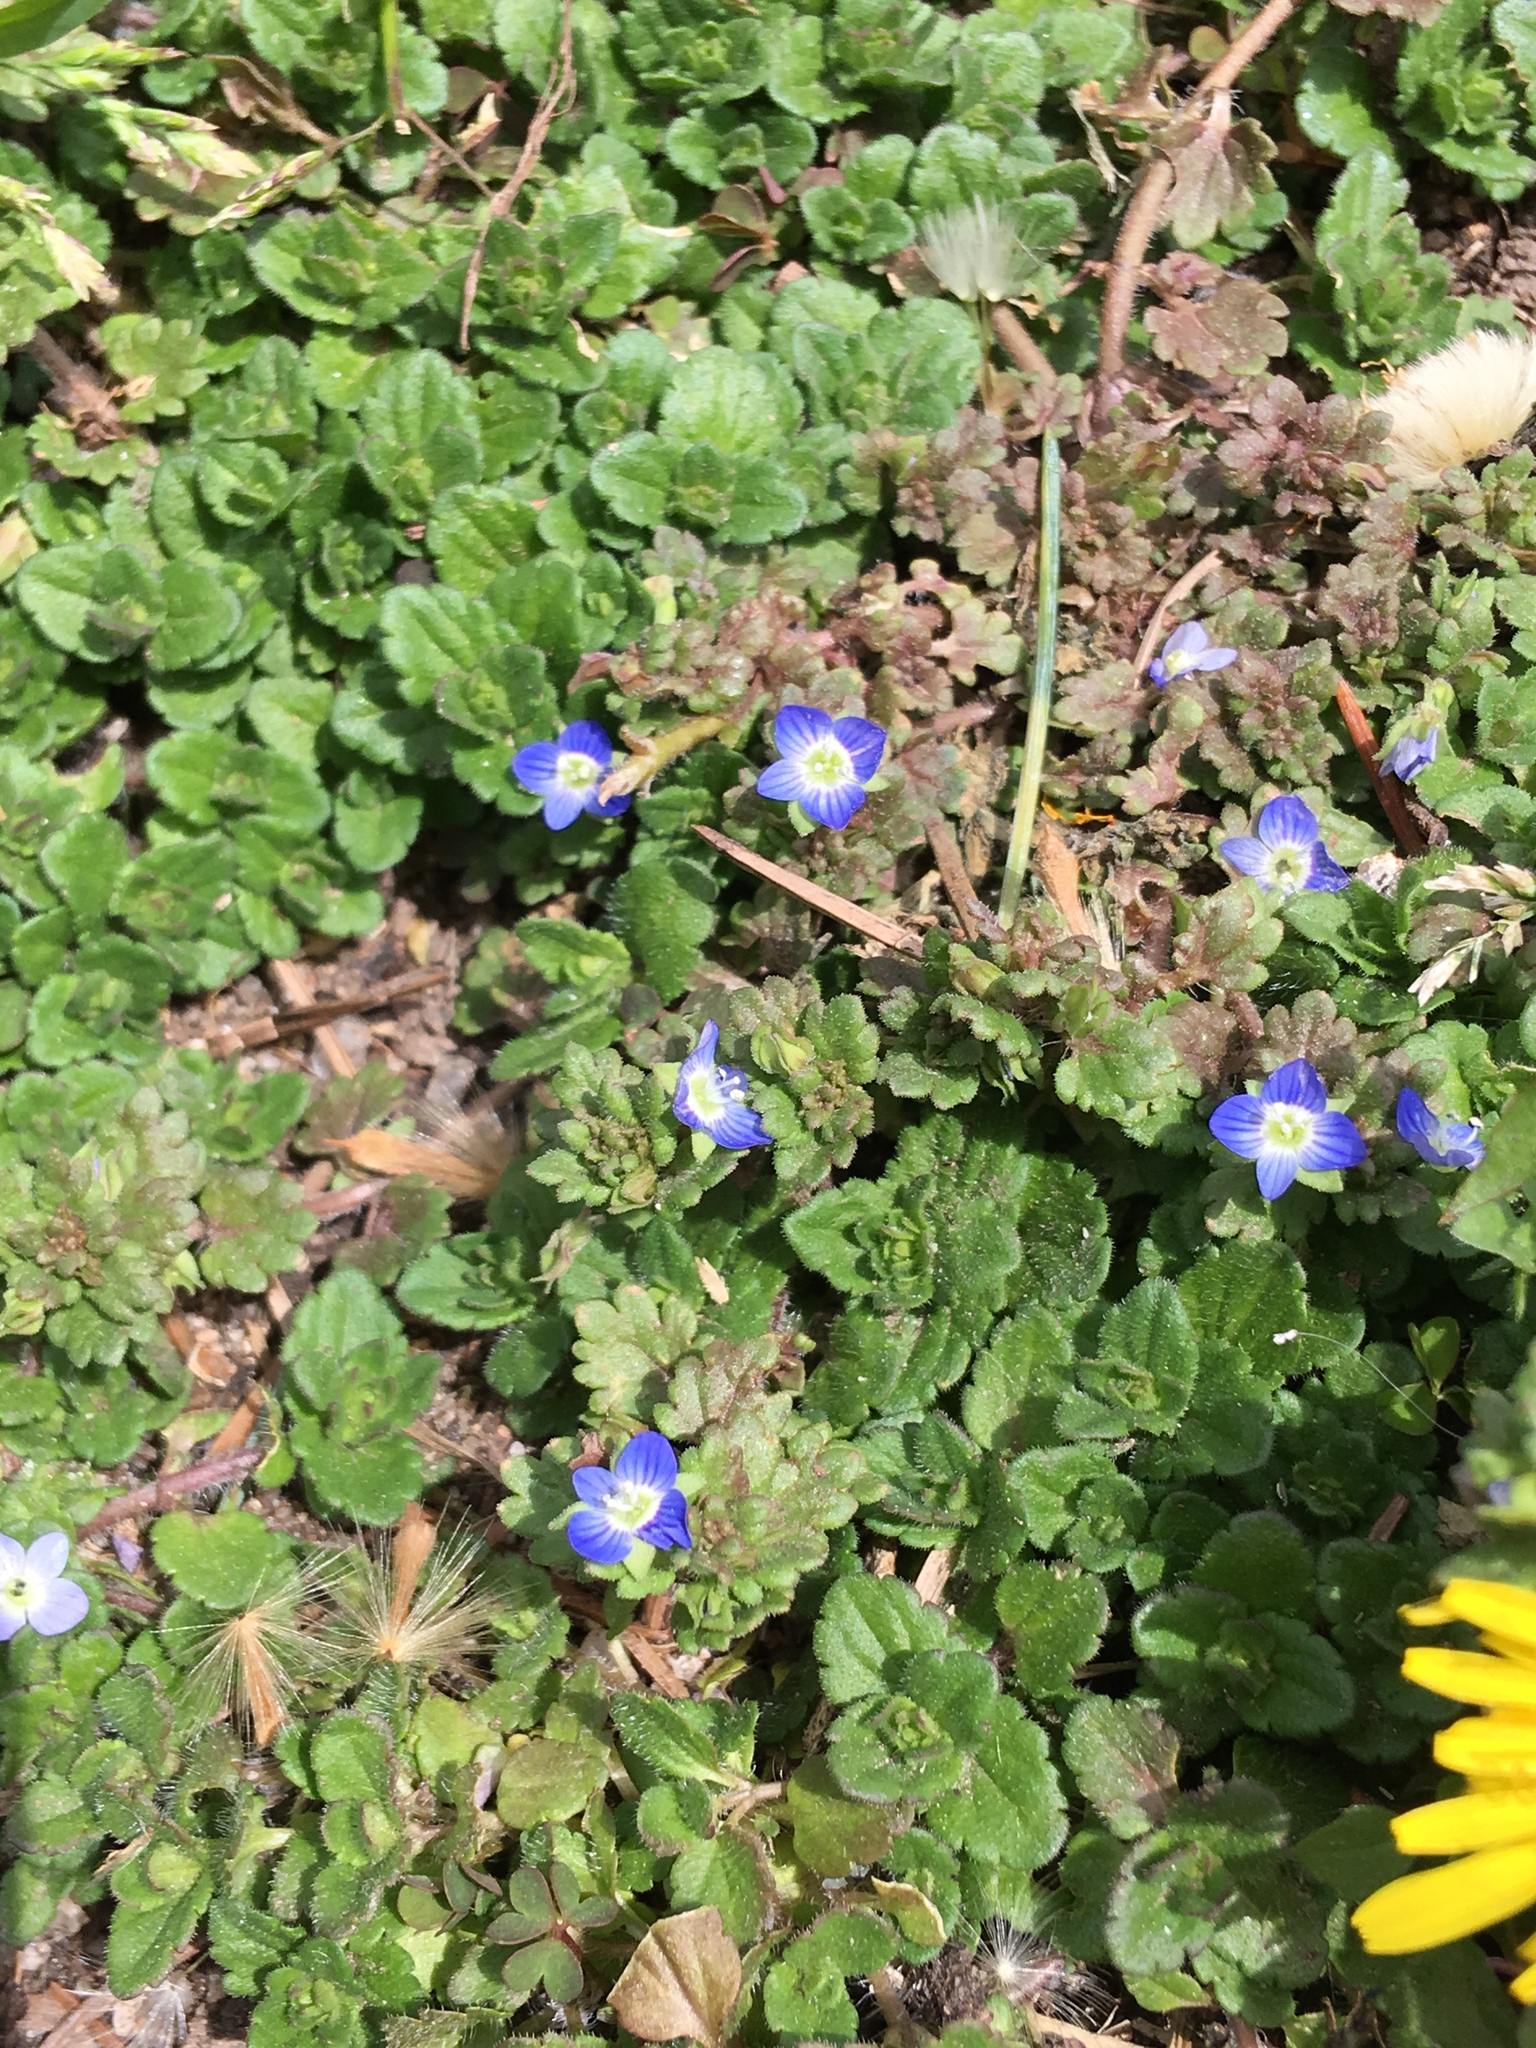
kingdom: Plantae
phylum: Tracheophyta
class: Magnoliopsida
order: Lamiales
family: Plantaginaceae
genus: Veronica
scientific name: Veronica polita
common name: Grey field-speedwell
